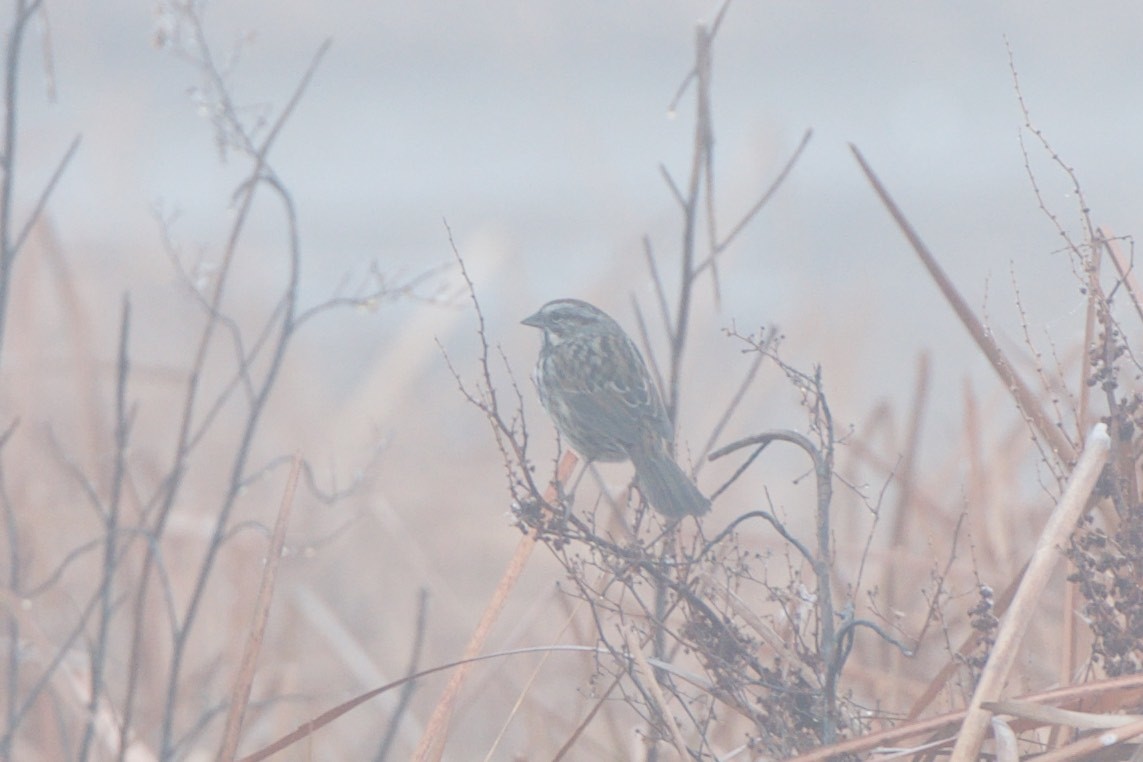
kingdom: Animalia
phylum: Chordata
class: Aves
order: Passeriformes
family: Passerellidae
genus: Melospiza
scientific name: Melospiza melodia
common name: Song sparrow
